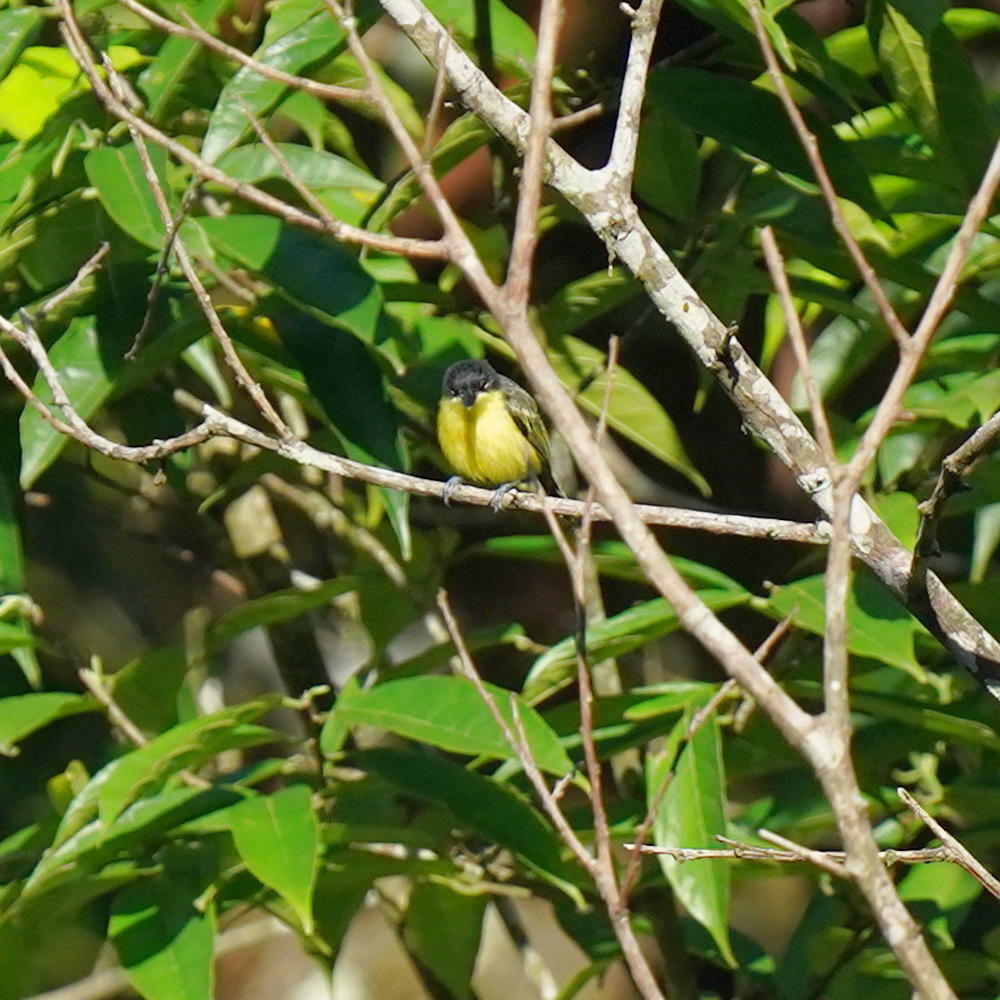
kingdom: Animalia
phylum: Chordata
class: Aves
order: Passeriformes
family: Tyrannidae
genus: Todirostrum
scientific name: Todirostrum cinereum
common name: Common tody-flycatcher
